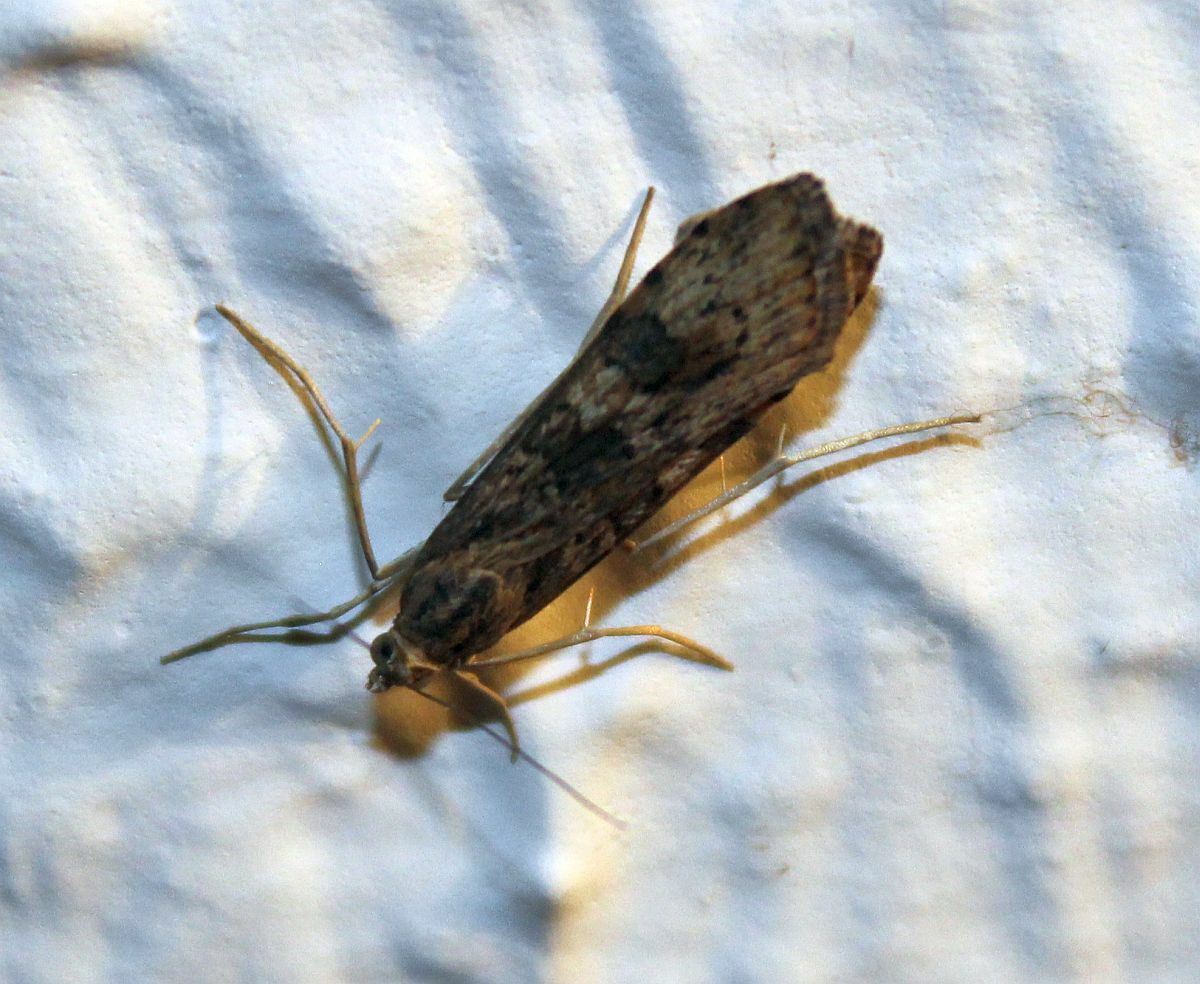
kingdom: Animalia
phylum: Arthropoda
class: Insecta
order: Lepidoptera
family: Crambidae
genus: Nomophila
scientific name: Nomophila noctuella
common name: Rush veneer
